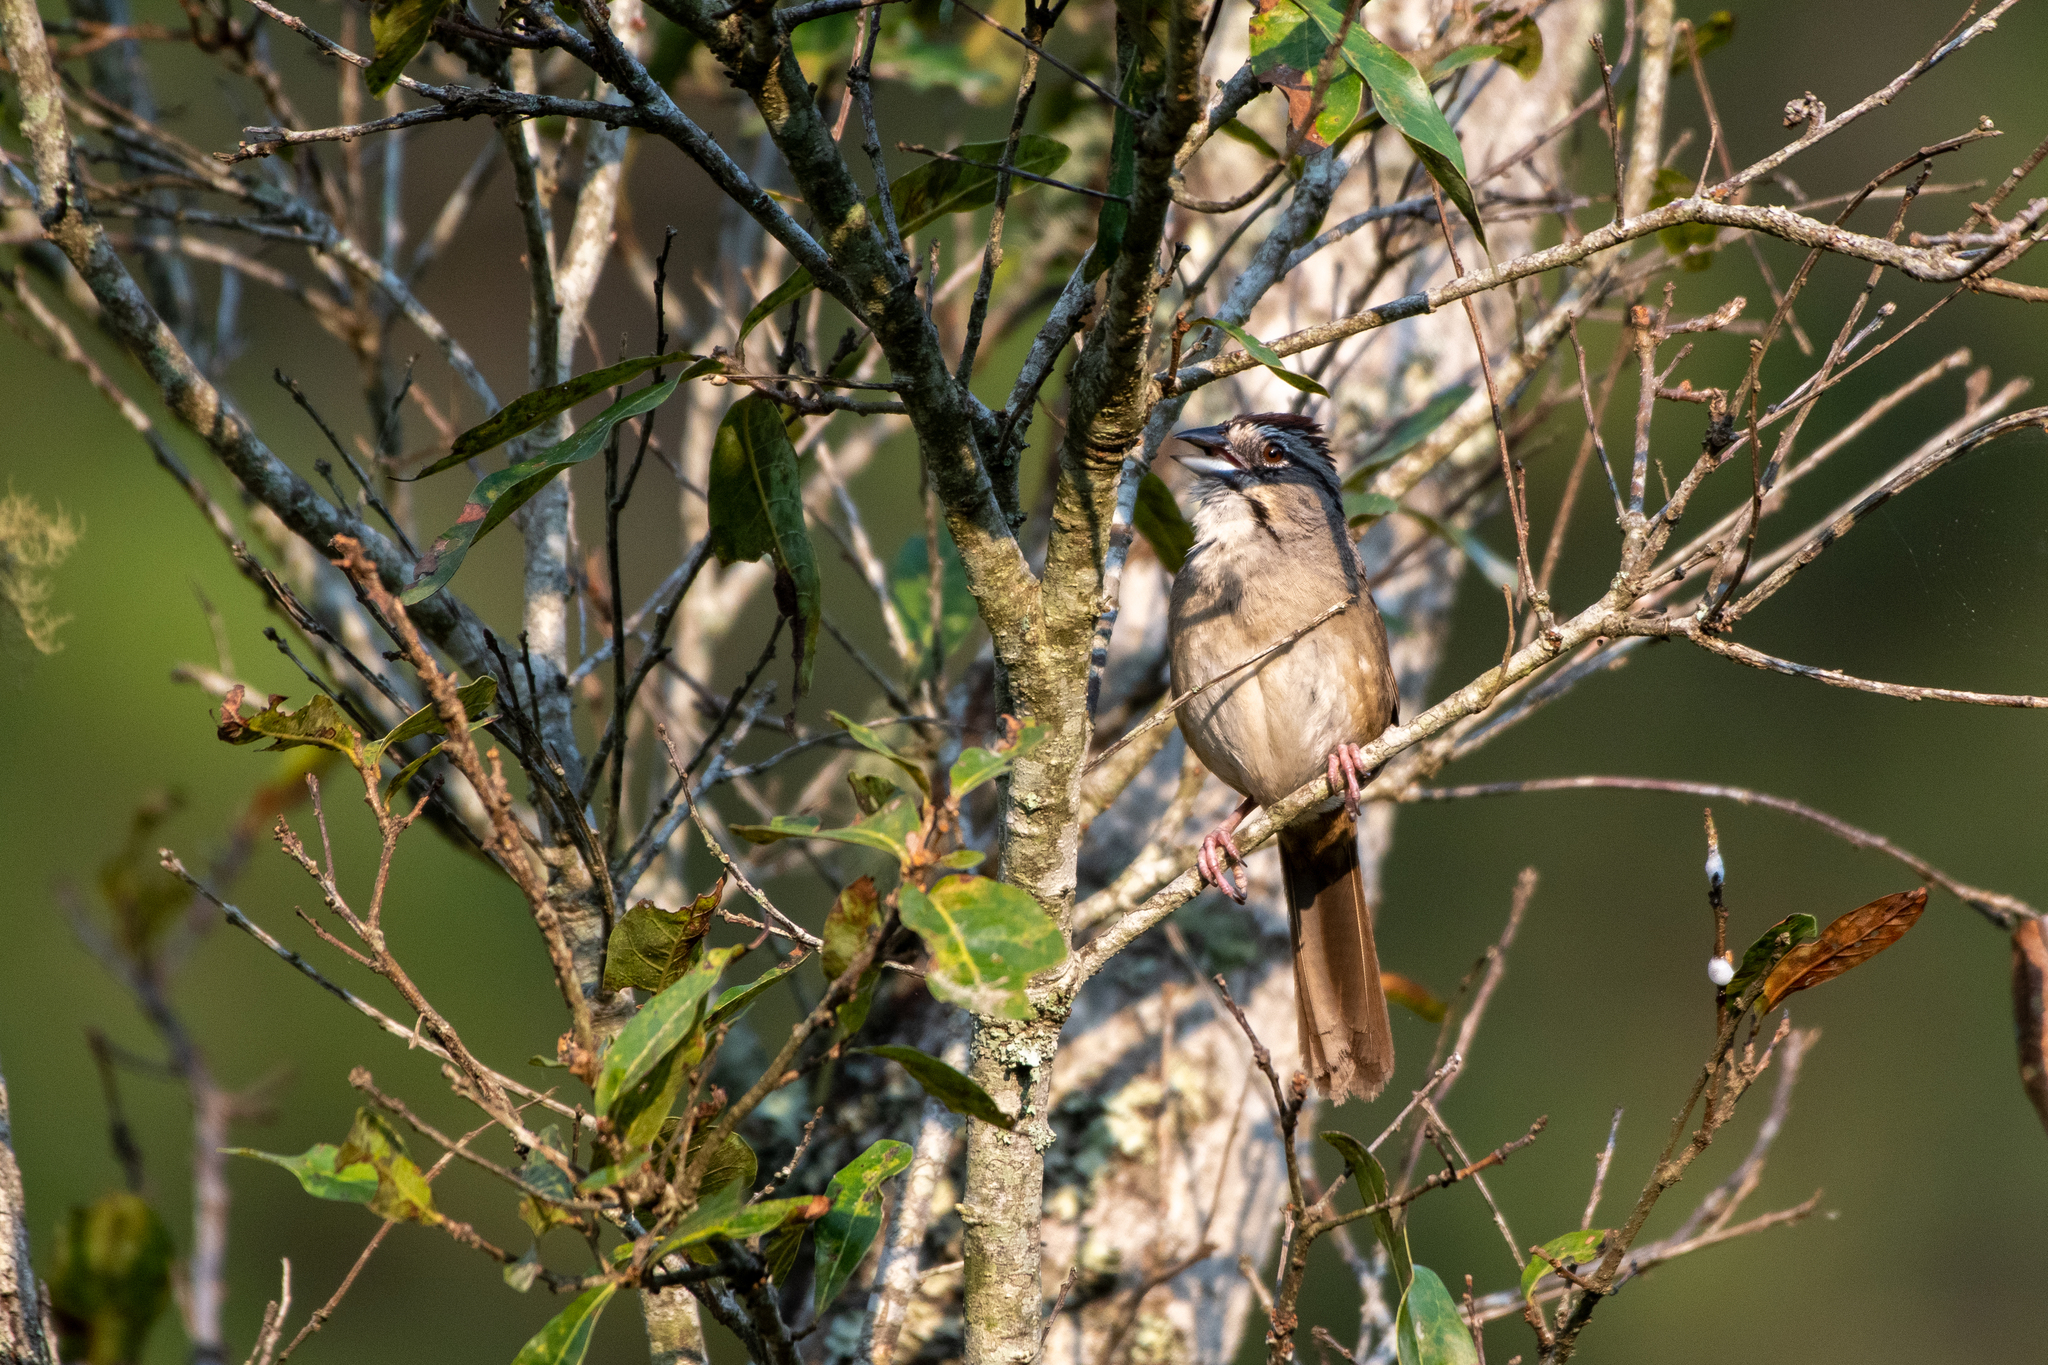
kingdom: Animalia
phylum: Chordata
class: Aves
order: Passeriformes
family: Passerellidae
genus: Aimophila
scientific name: Aimophila rufescens
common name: Rusty sparrow
